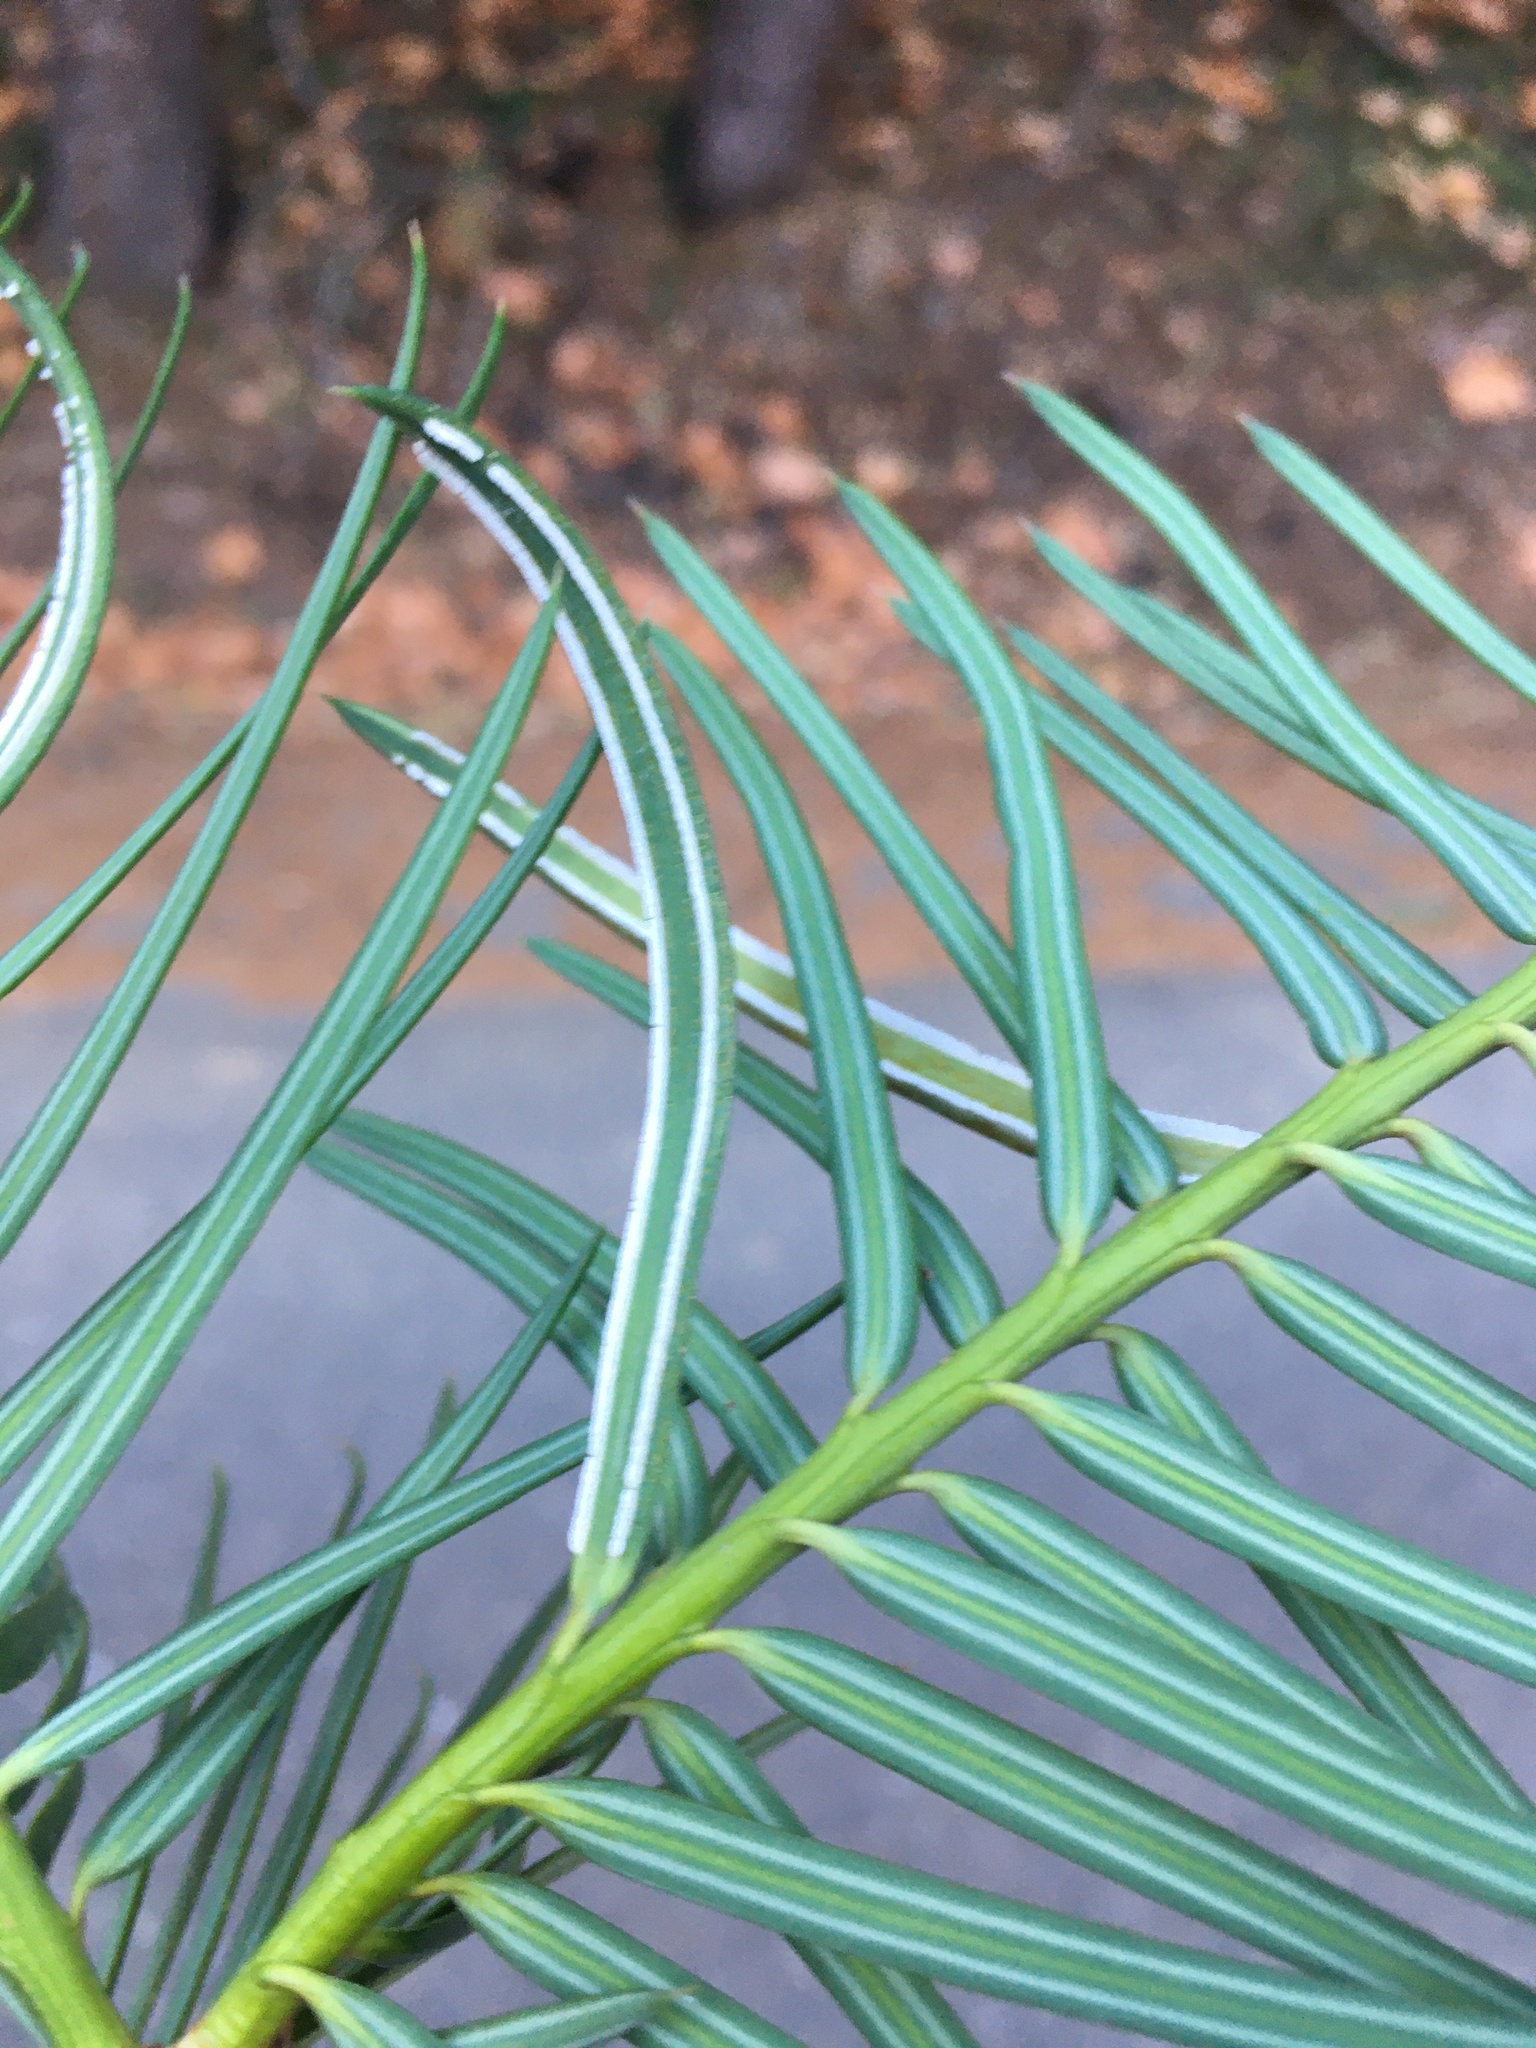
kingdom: Fungi
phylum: Basidiomycota
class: Pucciniomycetes
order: Pucciniales
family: Rogerpetersoniaceae
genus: Rogerpetersonia
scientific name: Rogerpetersonia torreyae
